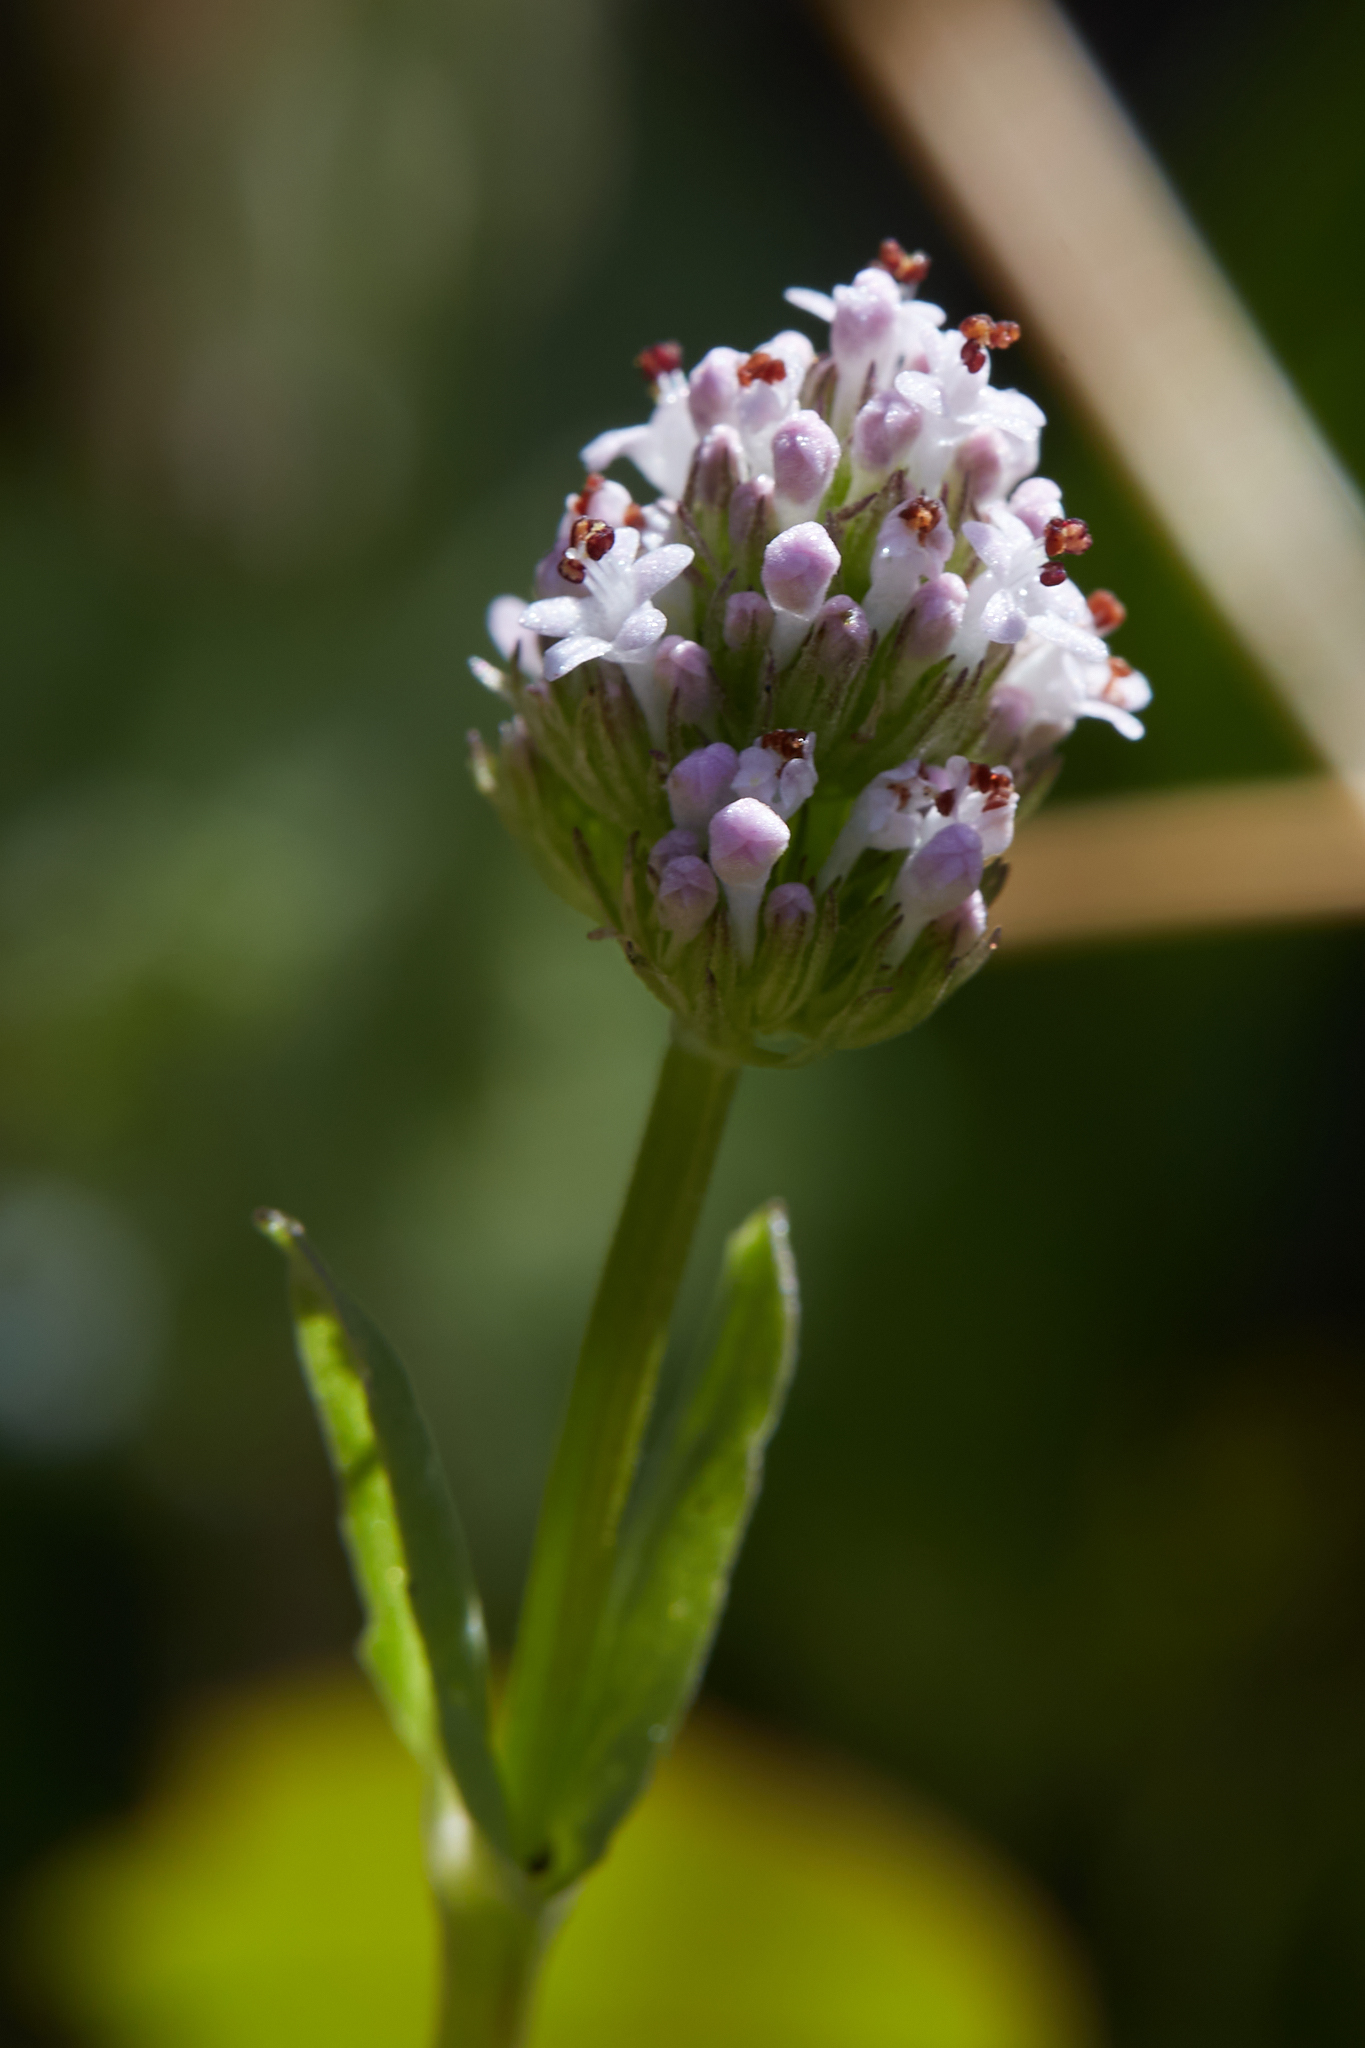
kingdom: Plantae
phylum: Tracheophyta
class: Magnoliopsida
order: Dipsacales
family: Caprifoliaceae
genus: Plectritis
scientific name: Plectritis macroptera
